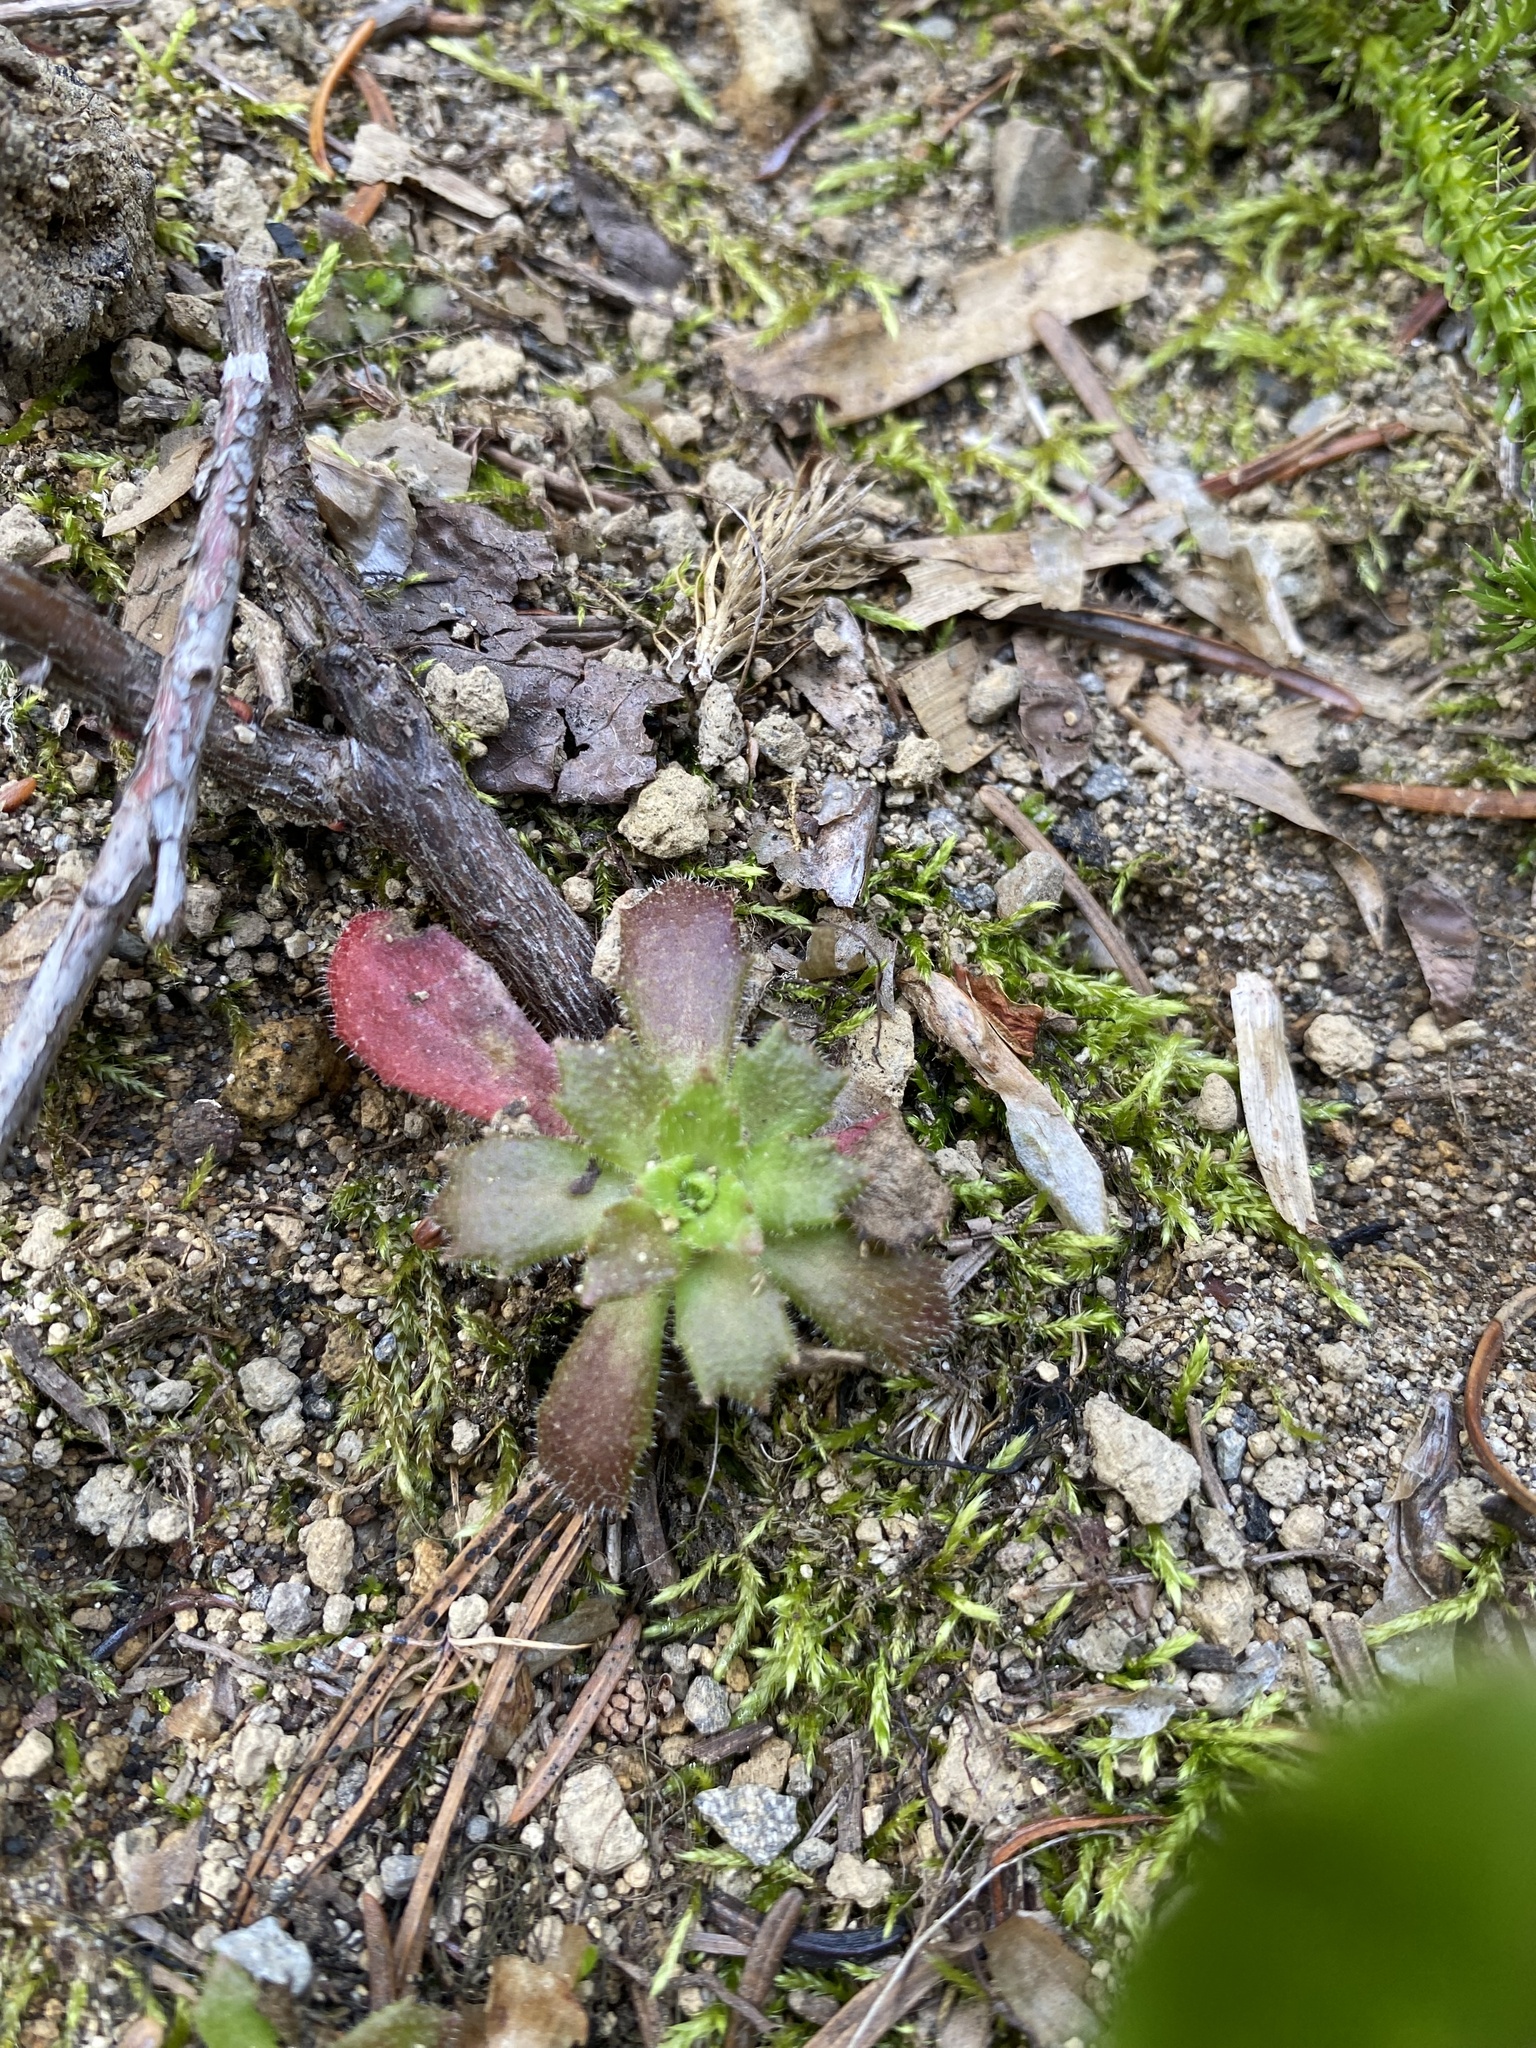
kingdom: Plantae
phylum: Tracheophyta
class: Magnoliopsida
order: Saxifragales
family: Saxifragaceae
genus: Micranthes
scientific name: Micranthes ferruginea
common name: Rusty saxifrage
